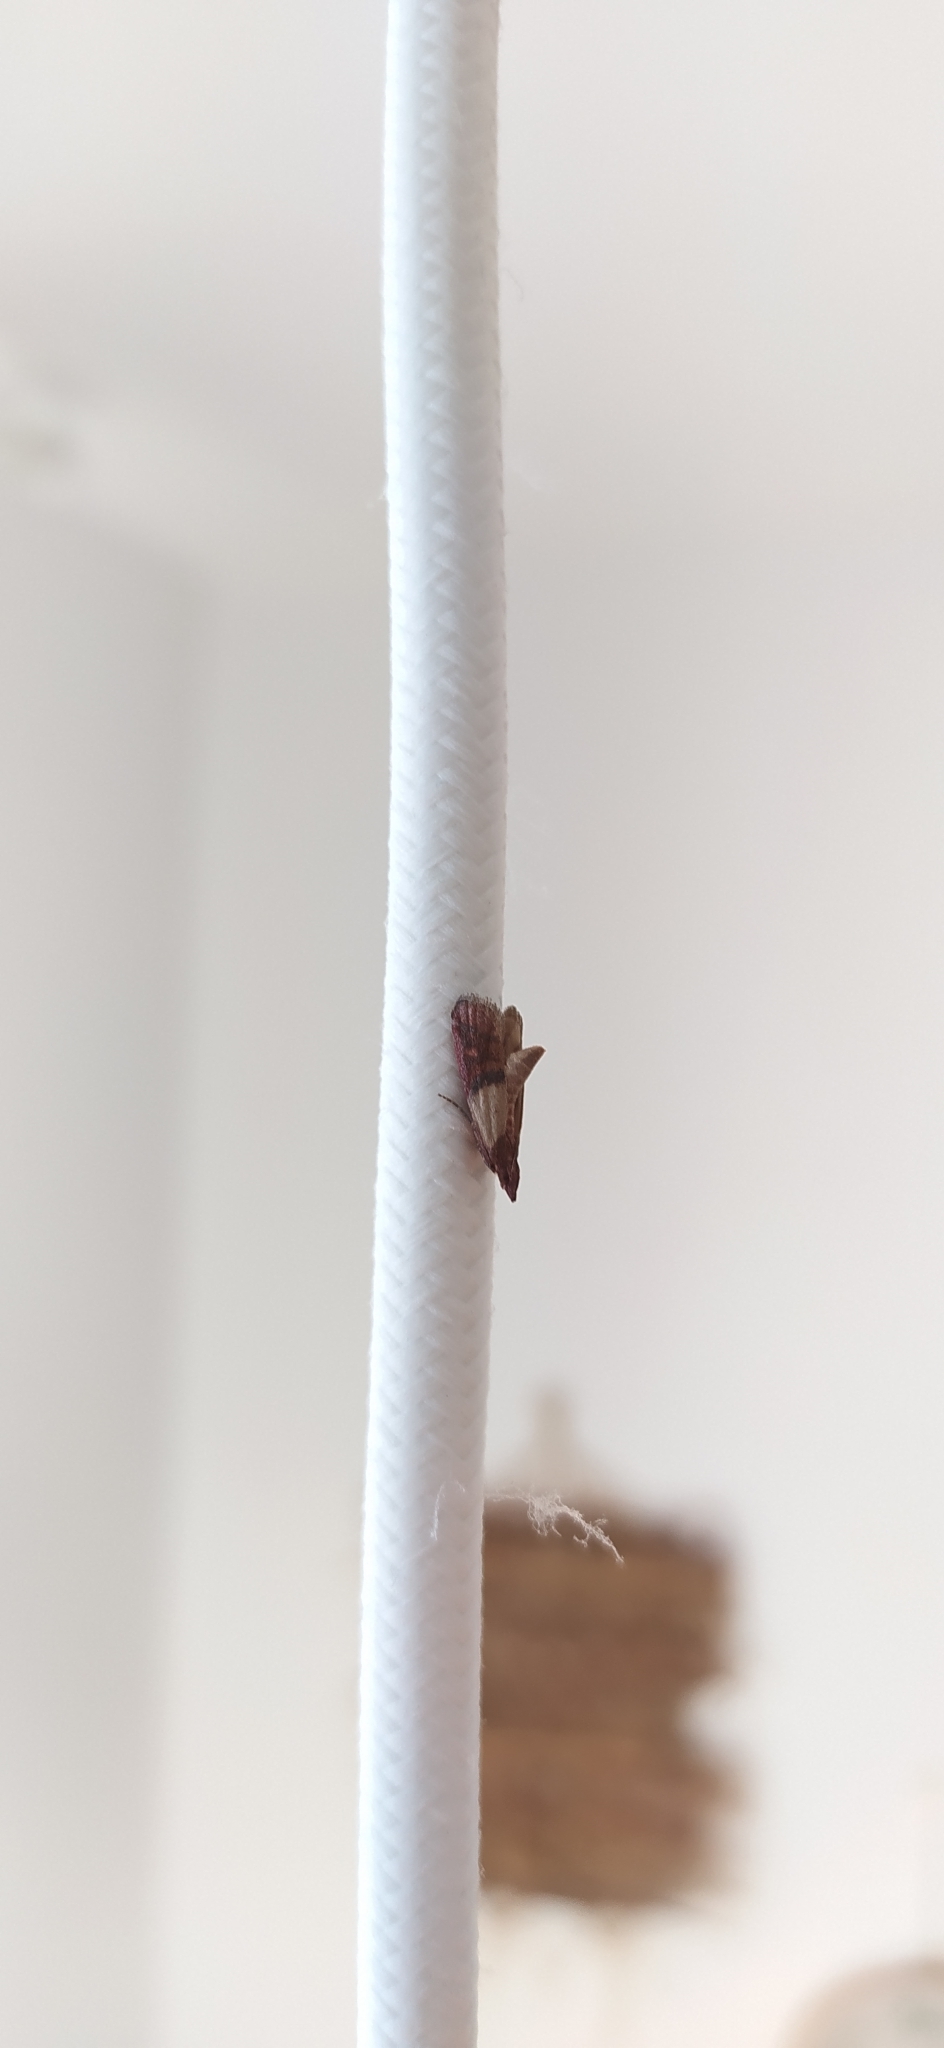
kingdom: Animalia
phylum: Arthropoda
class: Insecta
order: Lepidoptera
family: Pyralidae
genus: Plodia
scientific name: Plodia interpunctella
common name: Indian meal moth
